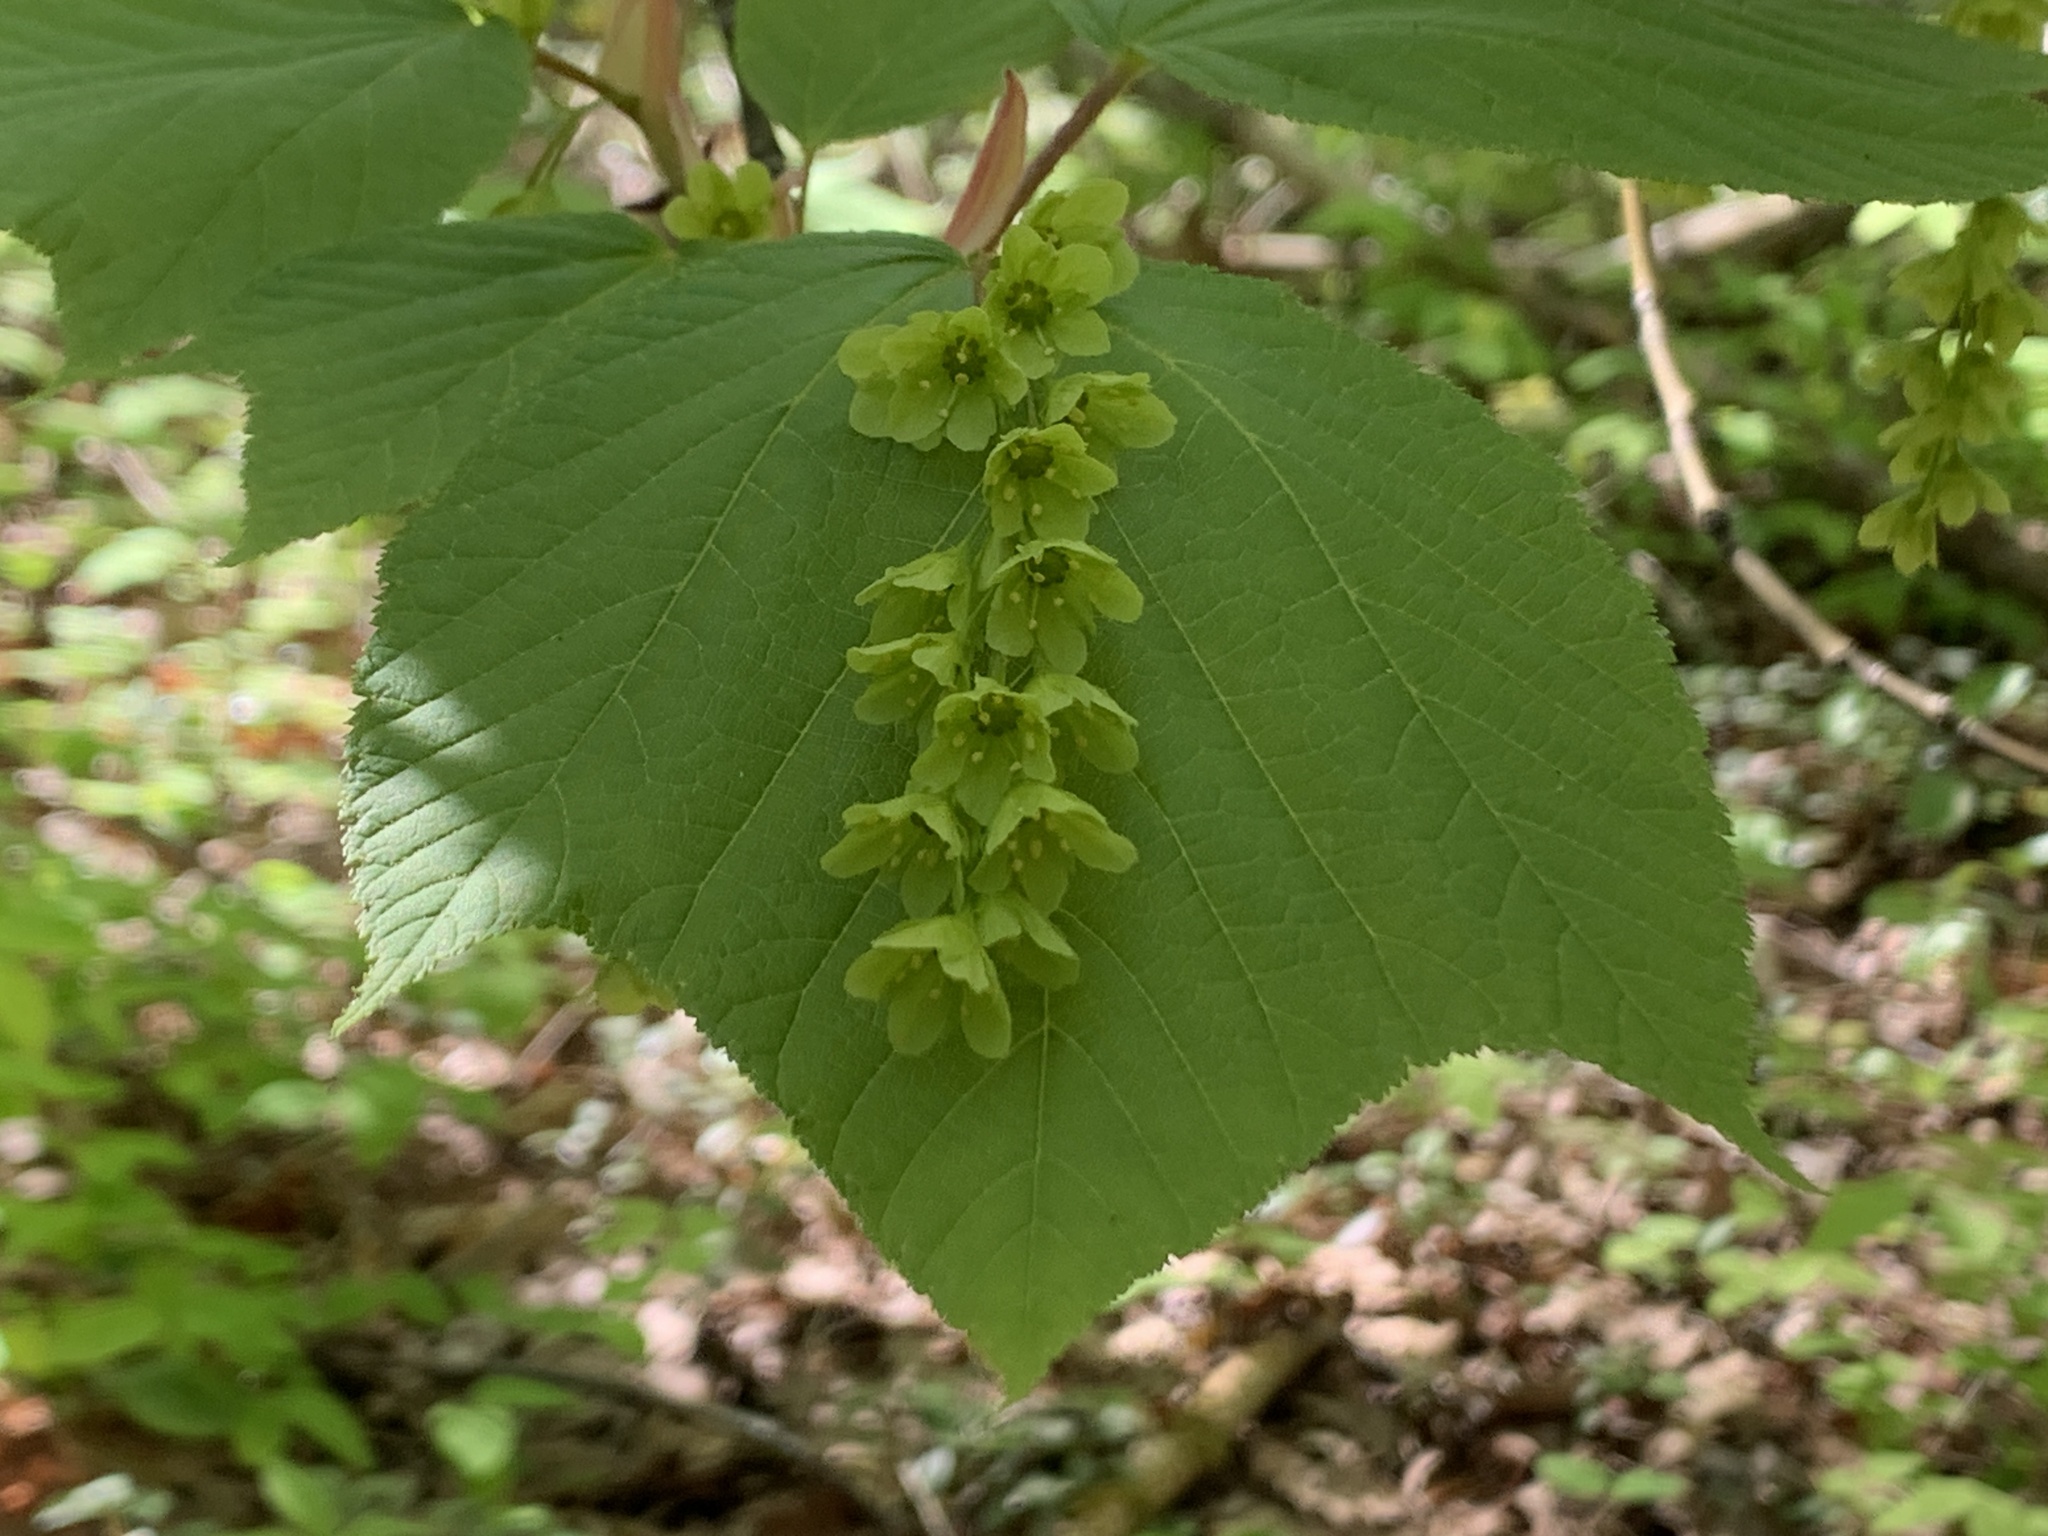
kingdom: Plantae
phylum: Tracheophyta
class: Magnoliopsida
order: Sapindales
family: Sapindaceae
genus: Acer
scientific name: Acer pensylvanicum
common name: Moosewood
